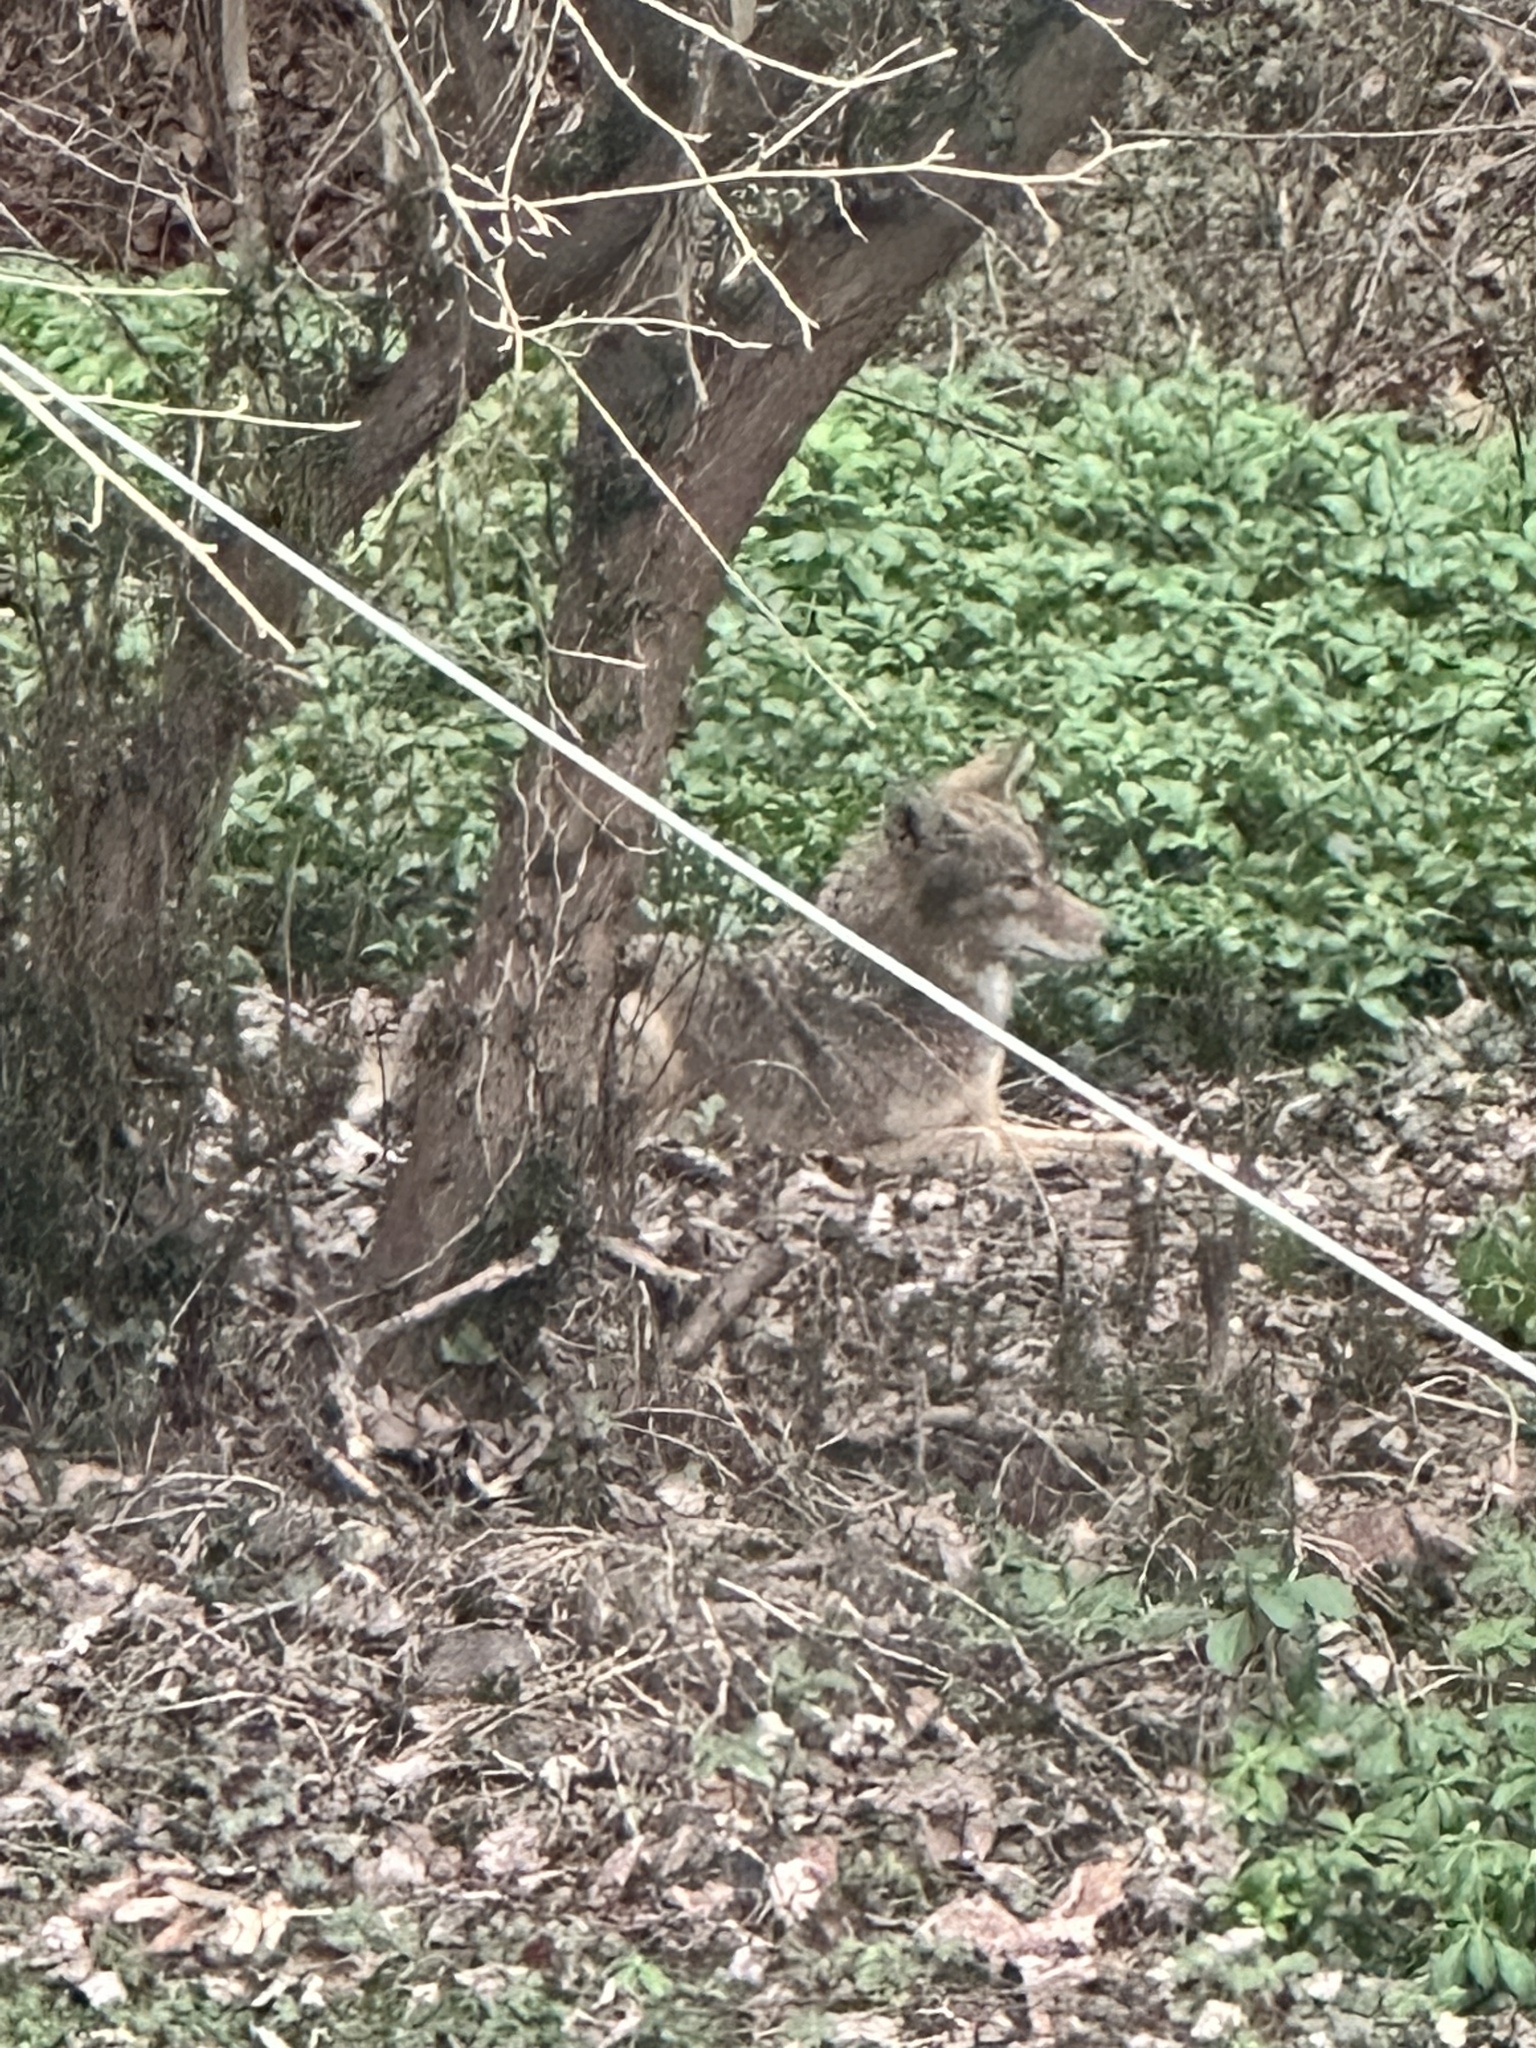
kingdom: Animalia
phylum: Chordata
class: Mammalia
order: Carnivora
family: Canidae
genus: Canis
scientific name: Canis latrans
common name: Coyote
